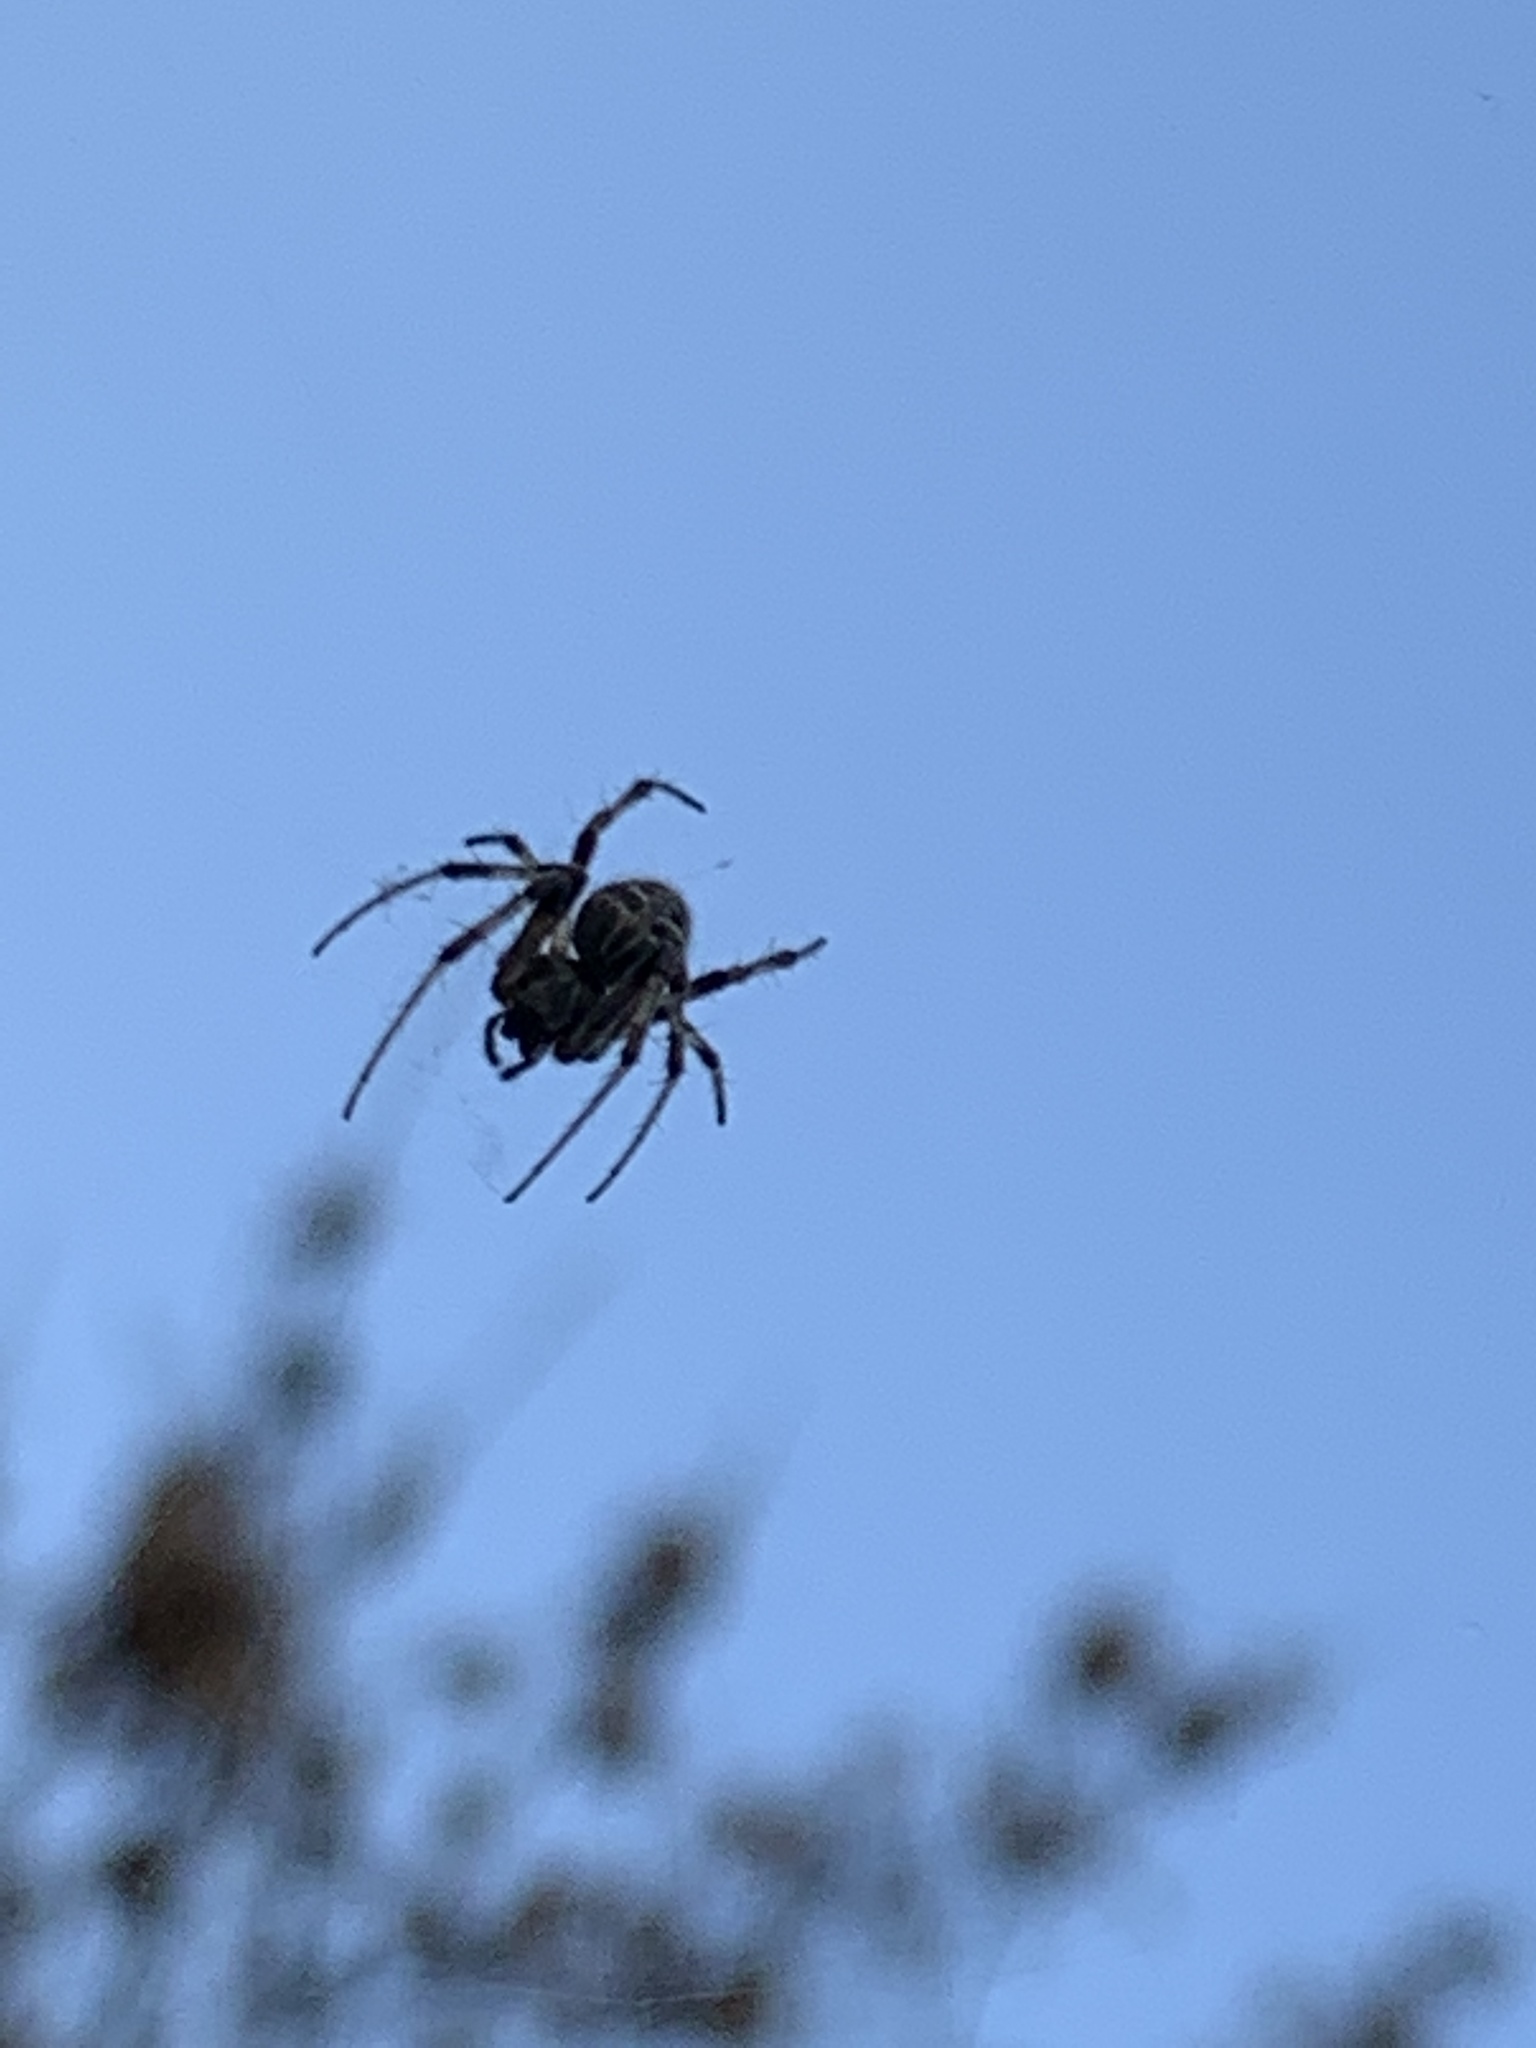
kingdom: Animalia
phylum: Arthropoda
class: Arachnida
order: Araneae
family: Araneidae
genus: Metepeira
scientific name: Metepeira
